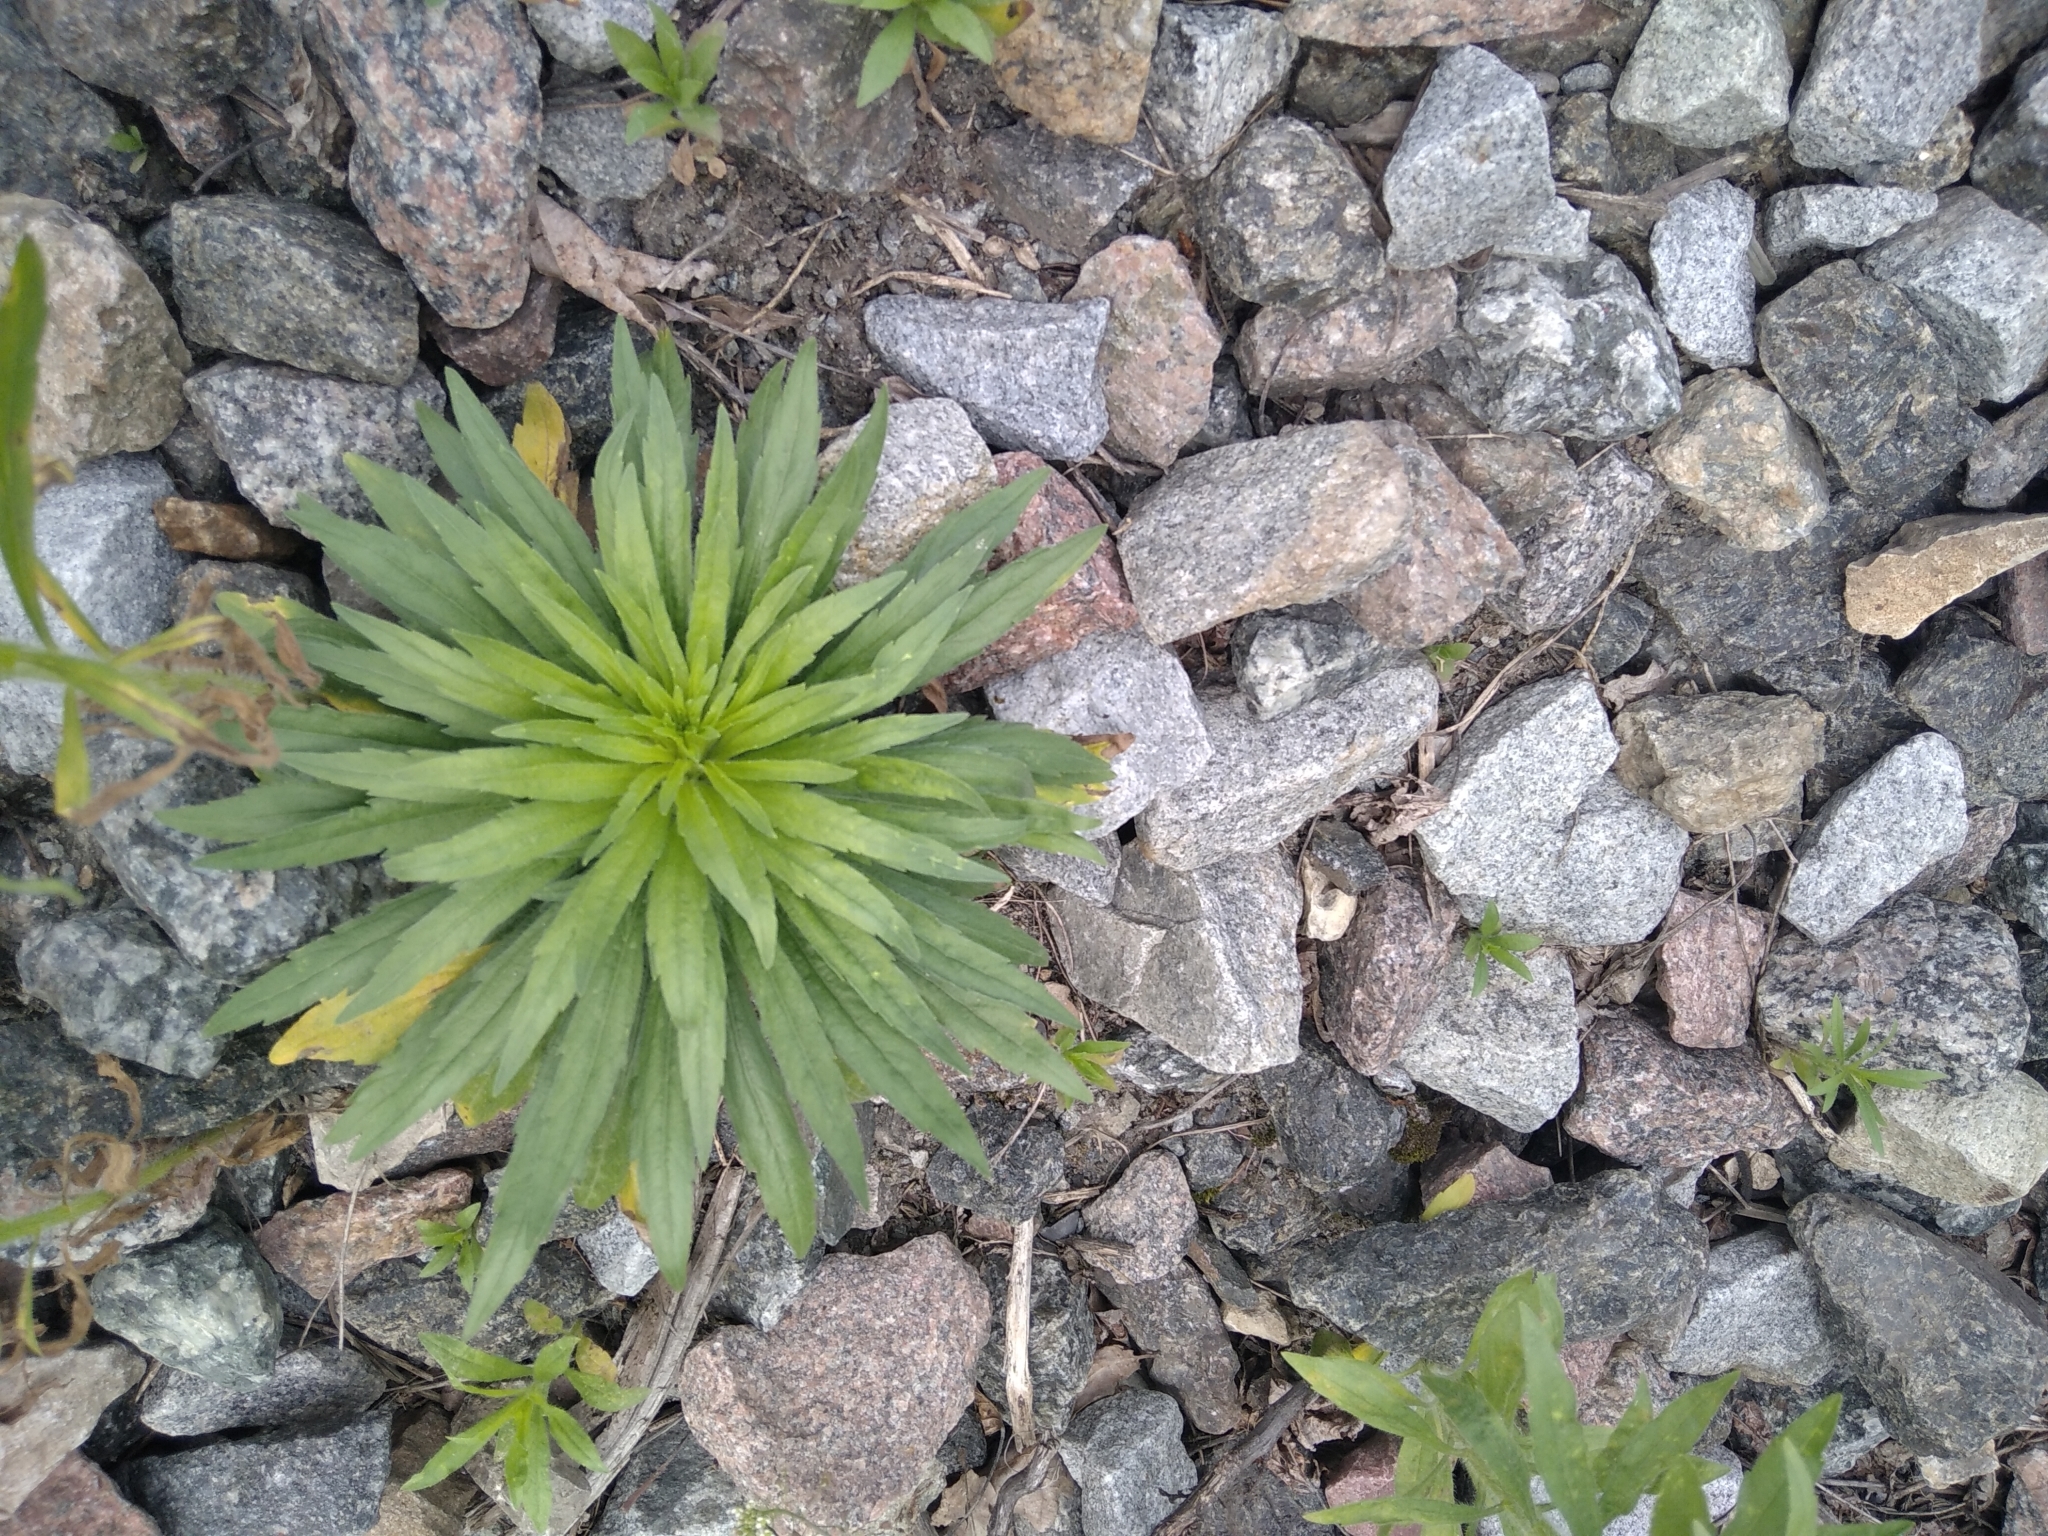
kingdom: Plantae
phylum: Tracheophyta
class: Magnoliopsida
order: Asterales
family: Asteraceae
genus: Erigeron
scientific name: Erigeron canadensis
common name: Canadian fleabane
